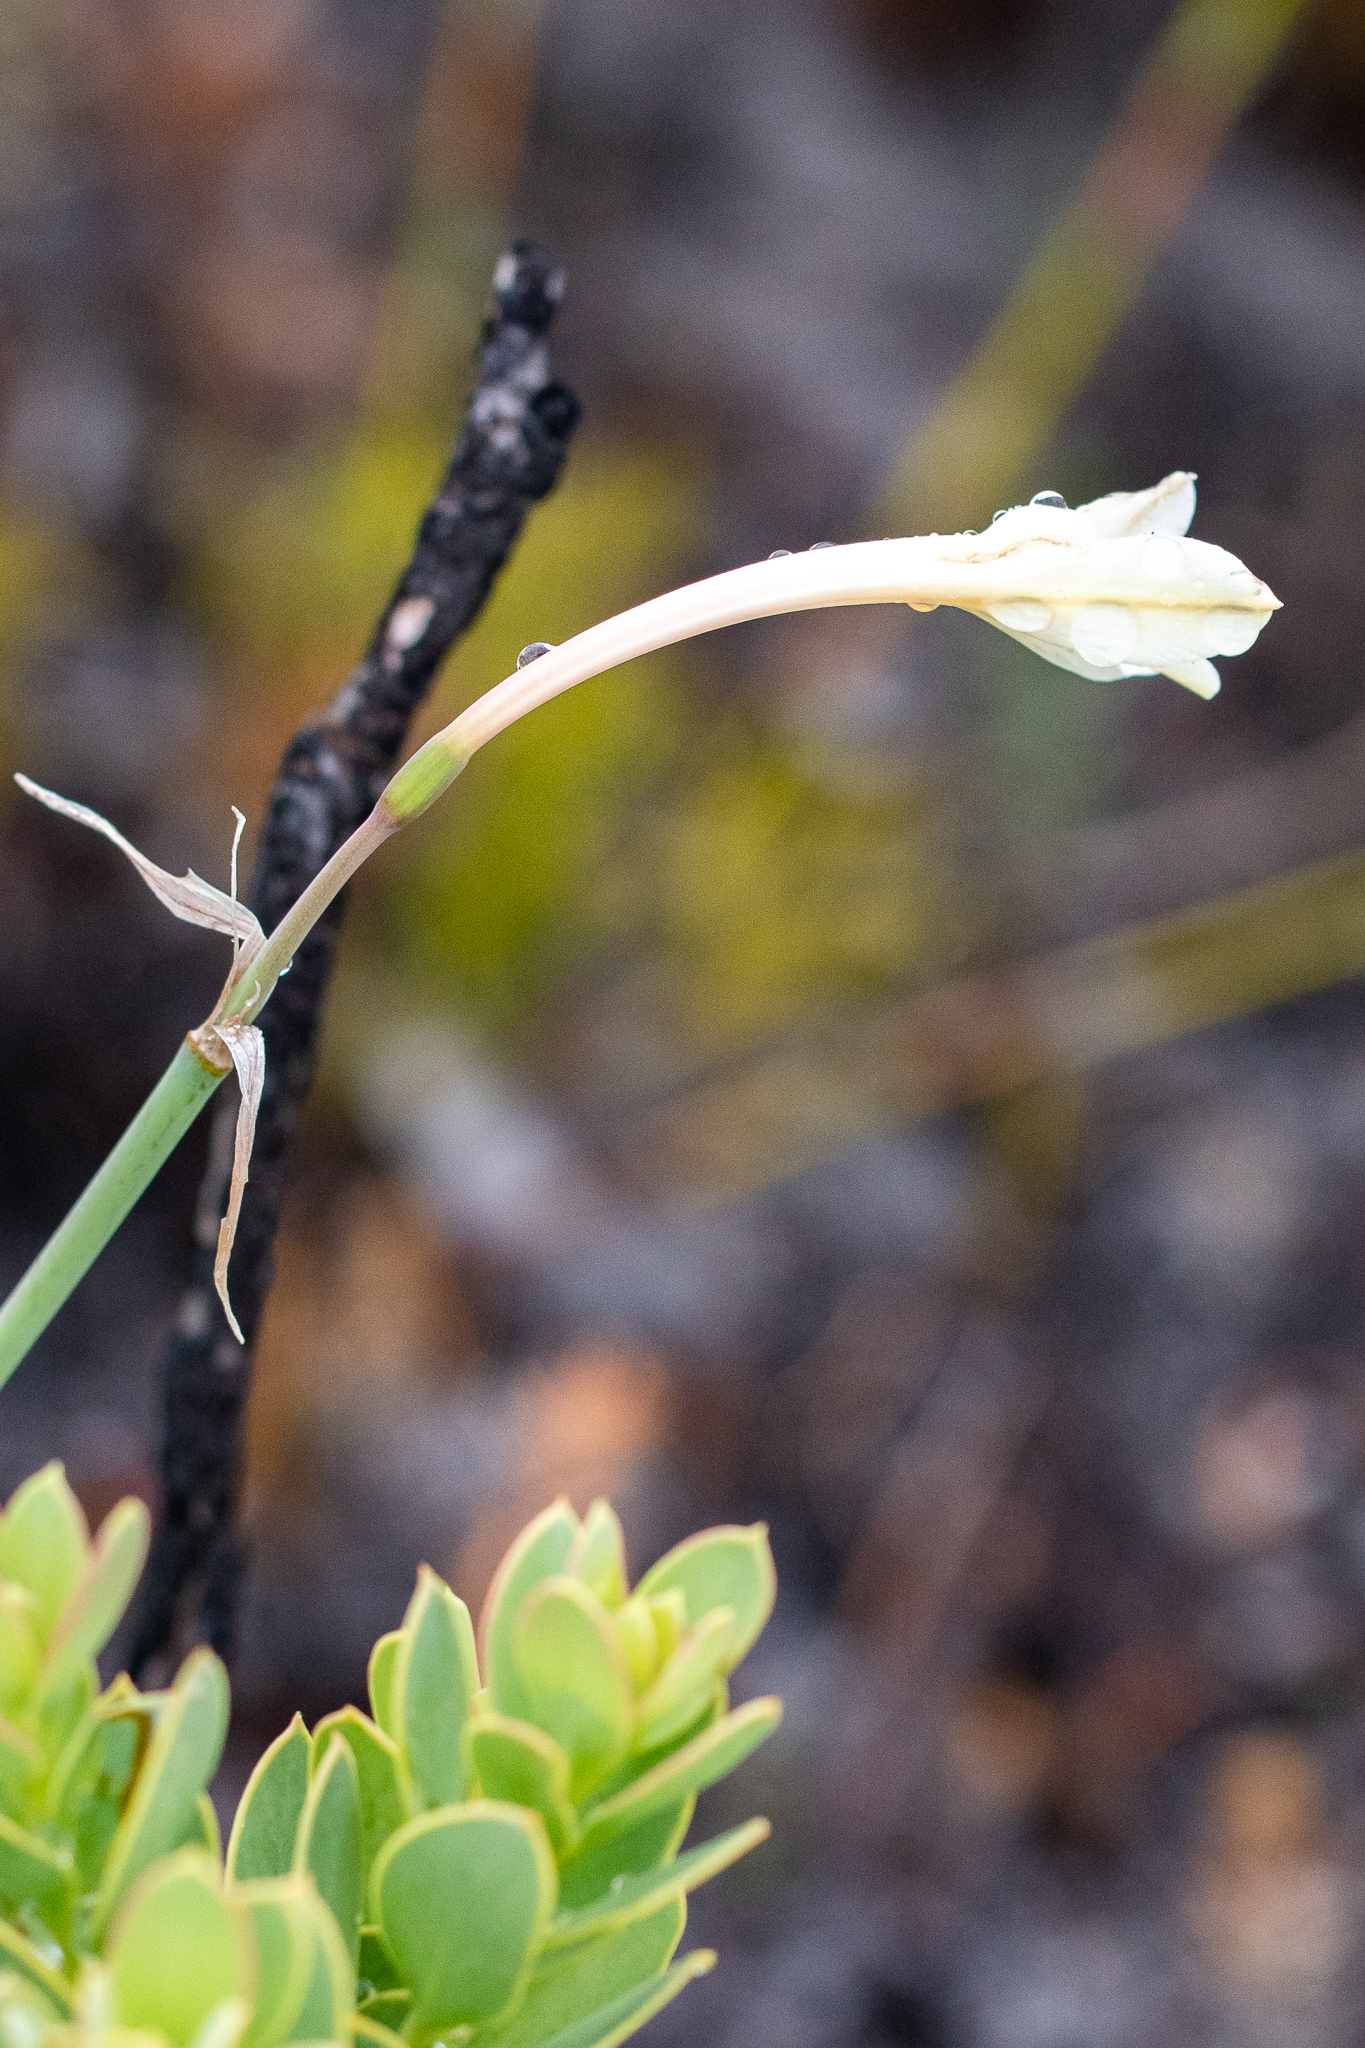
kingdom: Plantae
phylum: Tracheophyta
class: Liliopsida
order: Asparagales
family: Amaryllidaceae
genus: Cyrtanthus
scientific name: Cyrtanthus leucanthus
